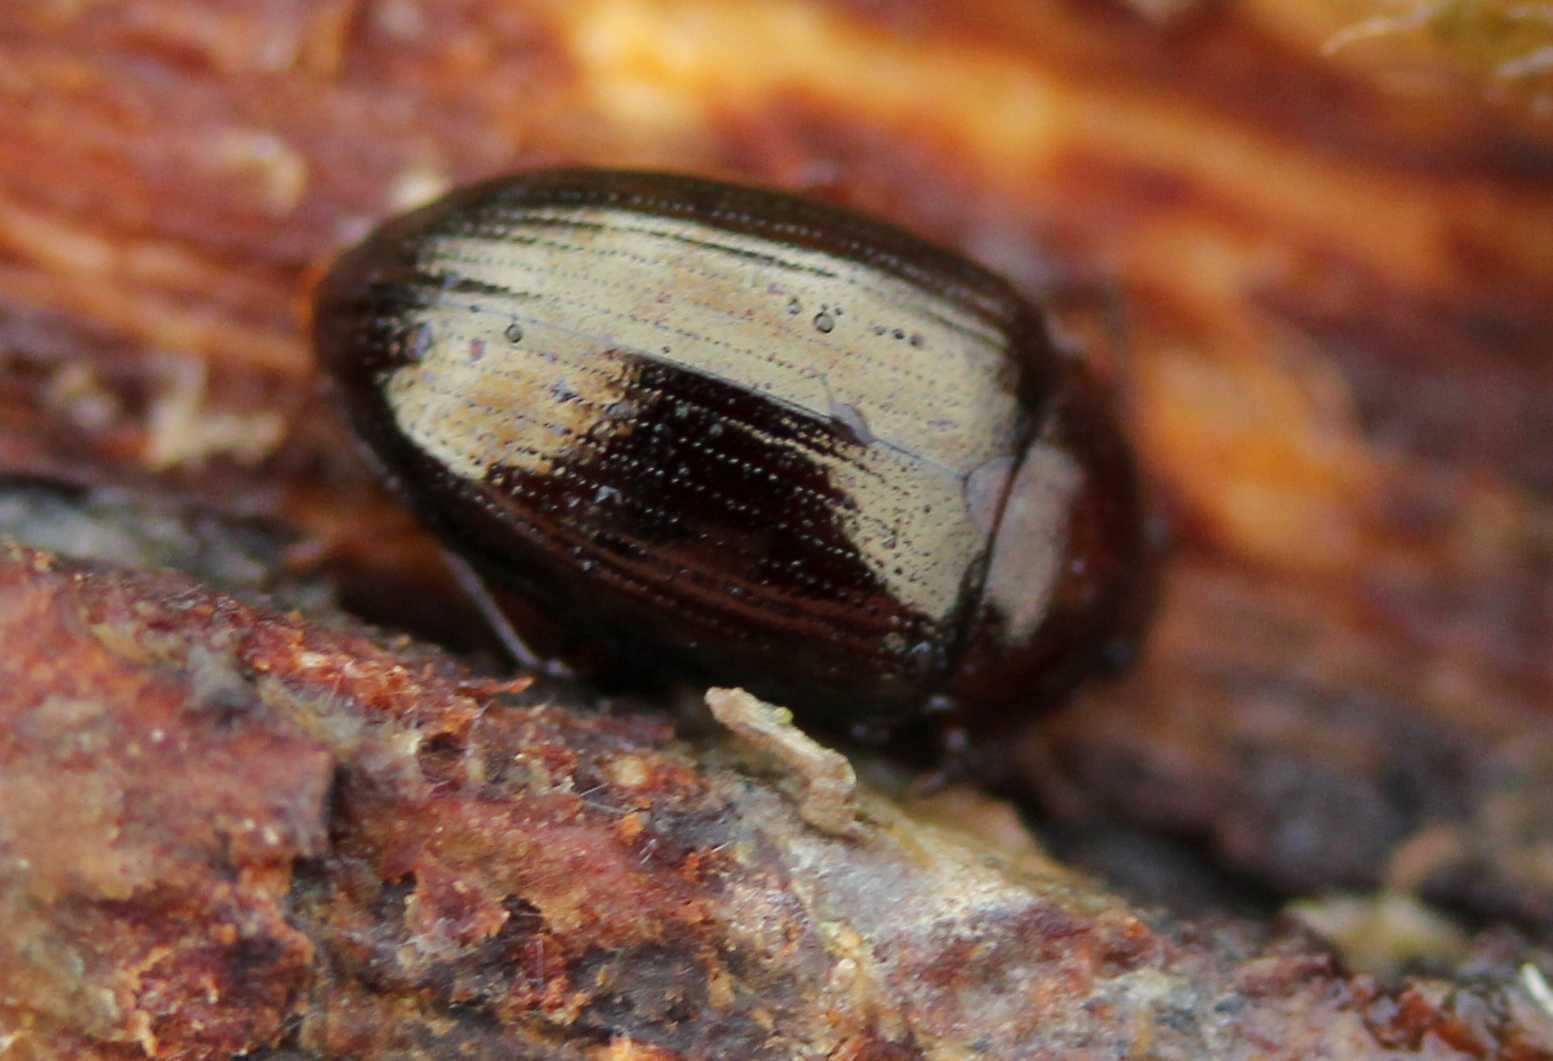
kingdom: Animalia
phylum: Arthropoda
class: Insecta
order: Coleoptera
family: Tenebrionidae
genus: Blapstinus
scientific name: Blapstinus metallicus
